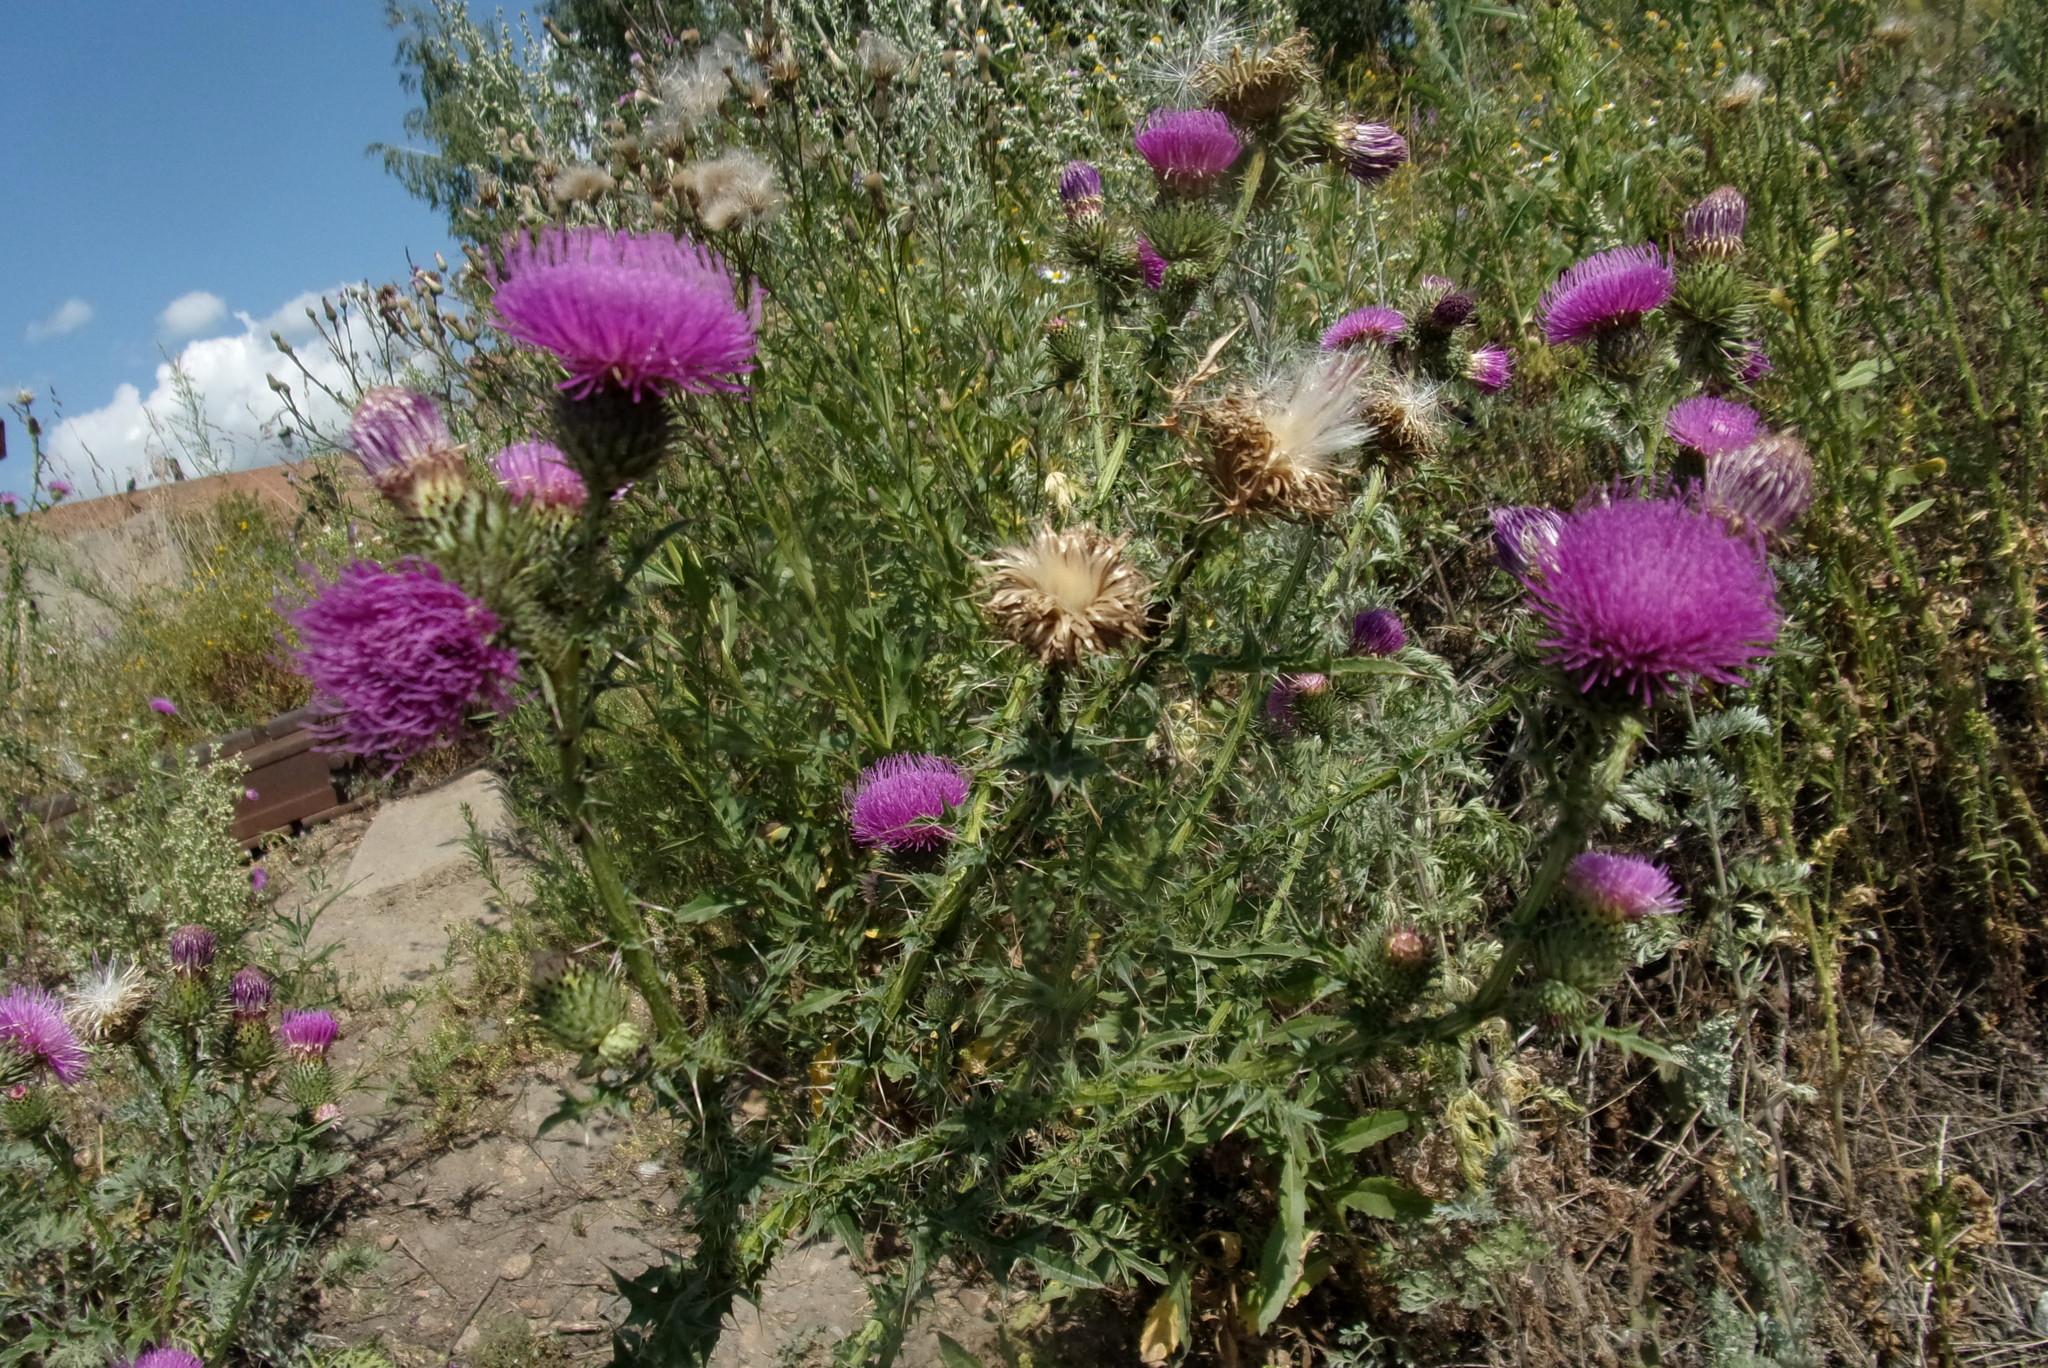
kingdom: Plantae
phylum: Tracheophyta
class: Magnoliopsida
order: Asterales
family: Asteraceae
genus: Carduus
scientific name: Carduus acanthoides
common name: Plumeless thistle
